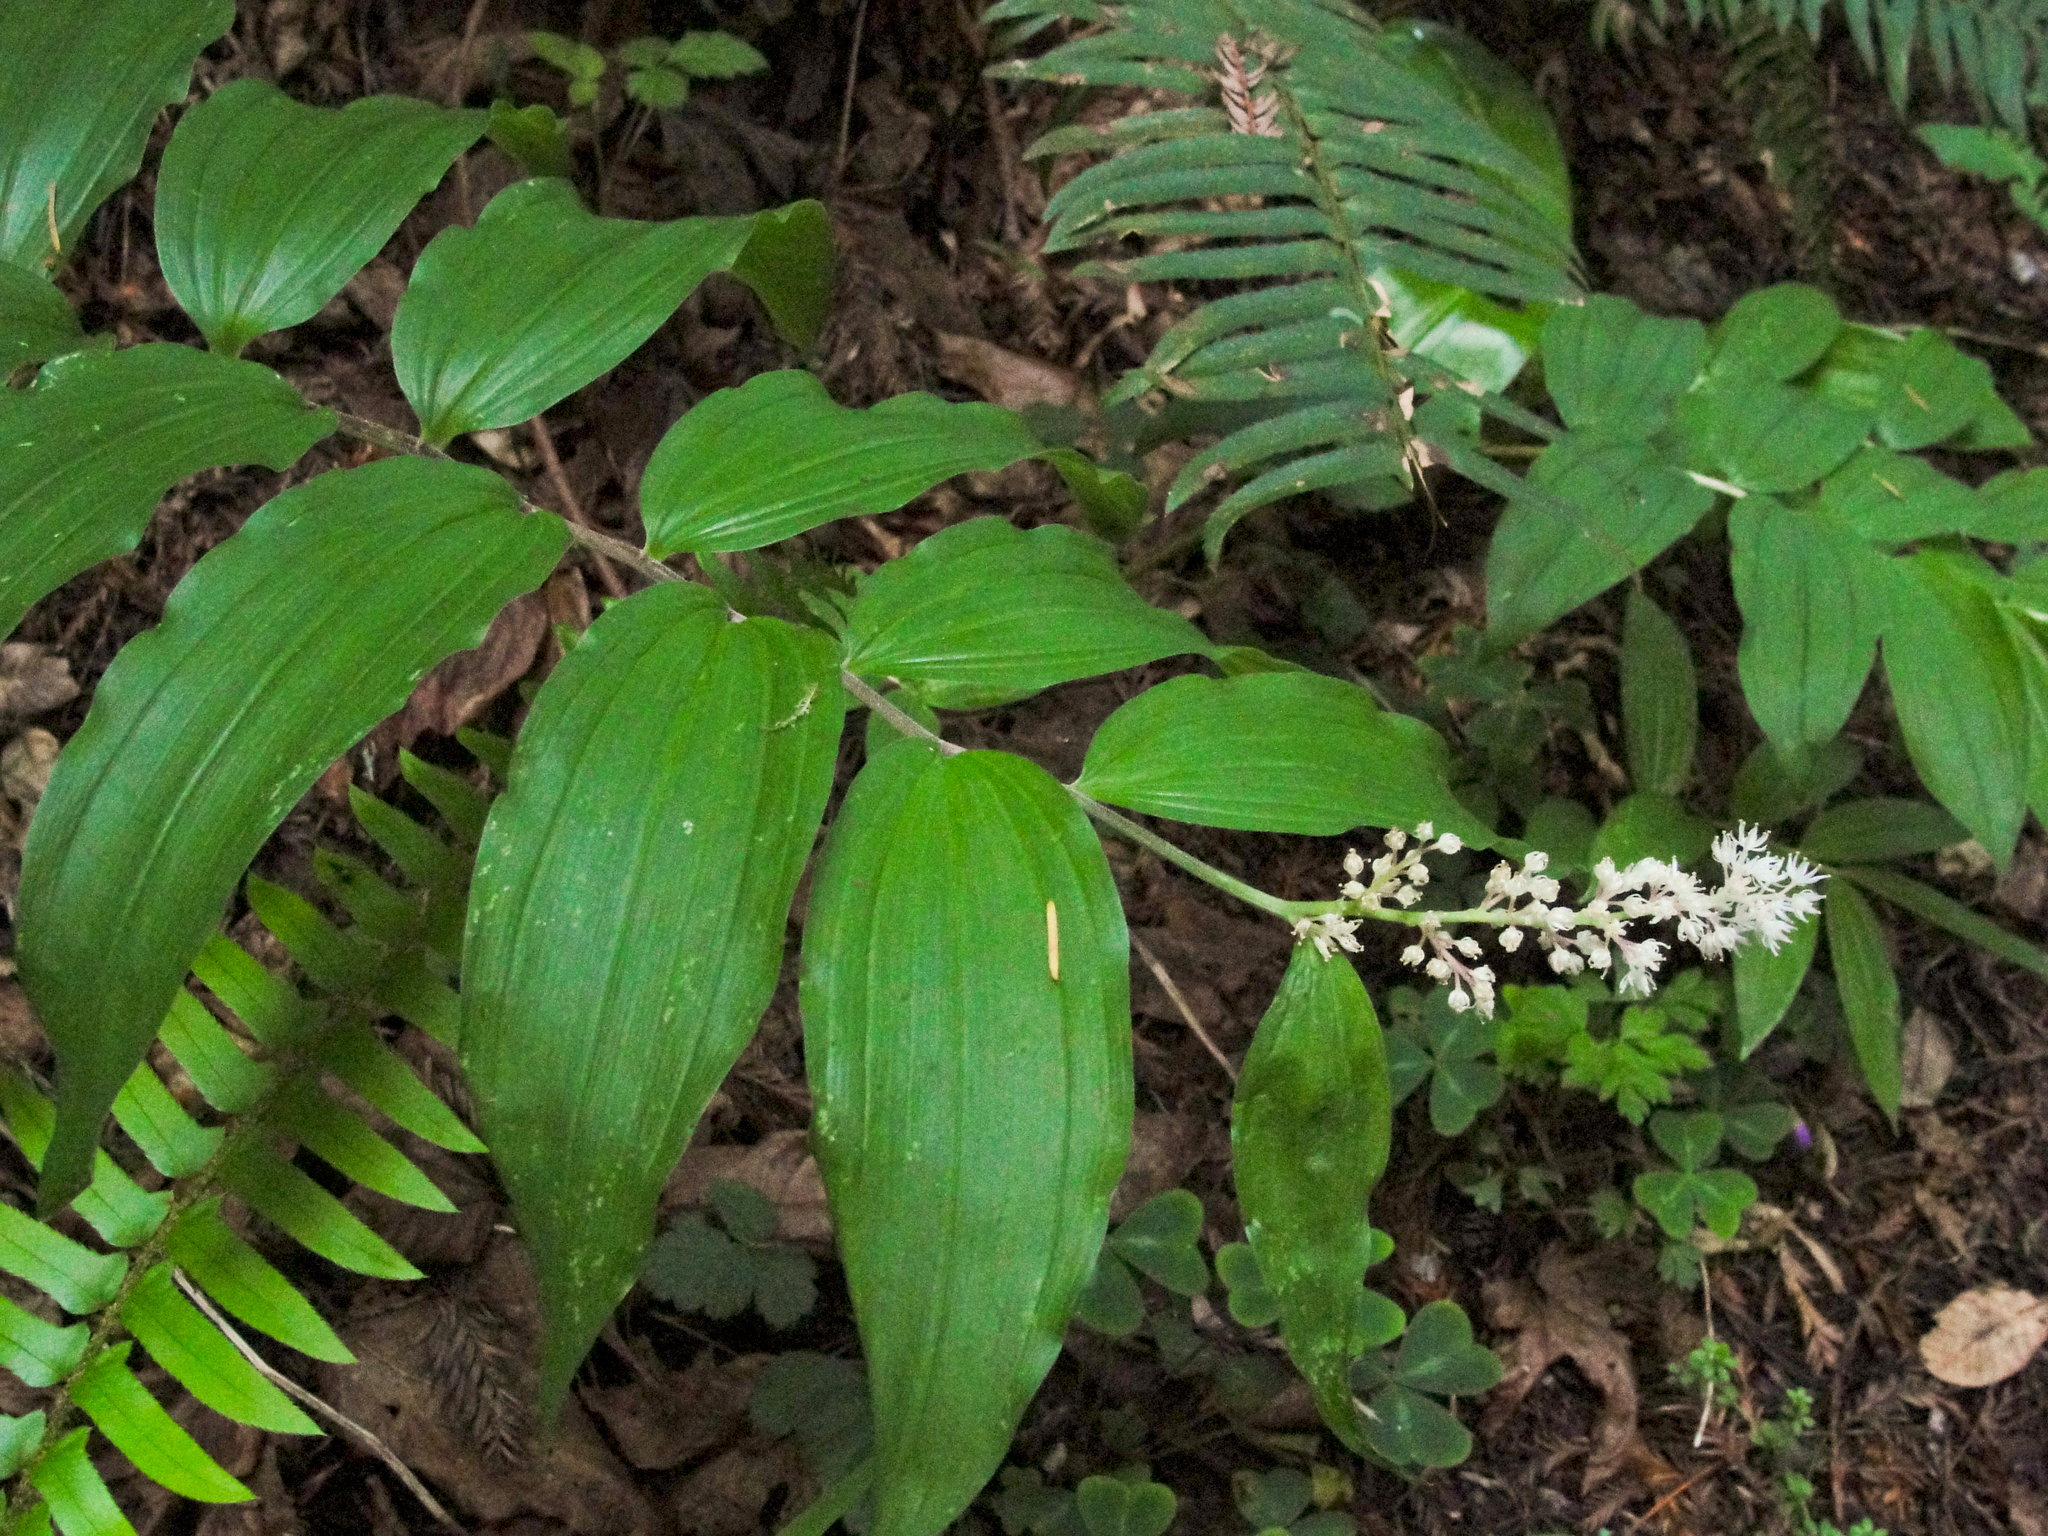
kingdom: Plantae
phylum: Tracheophyta
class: Liliopsida
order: Asparagales
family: Asparagaceae
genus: Maianthemum
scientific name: Maianthemum racemosum
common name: False spikenard
